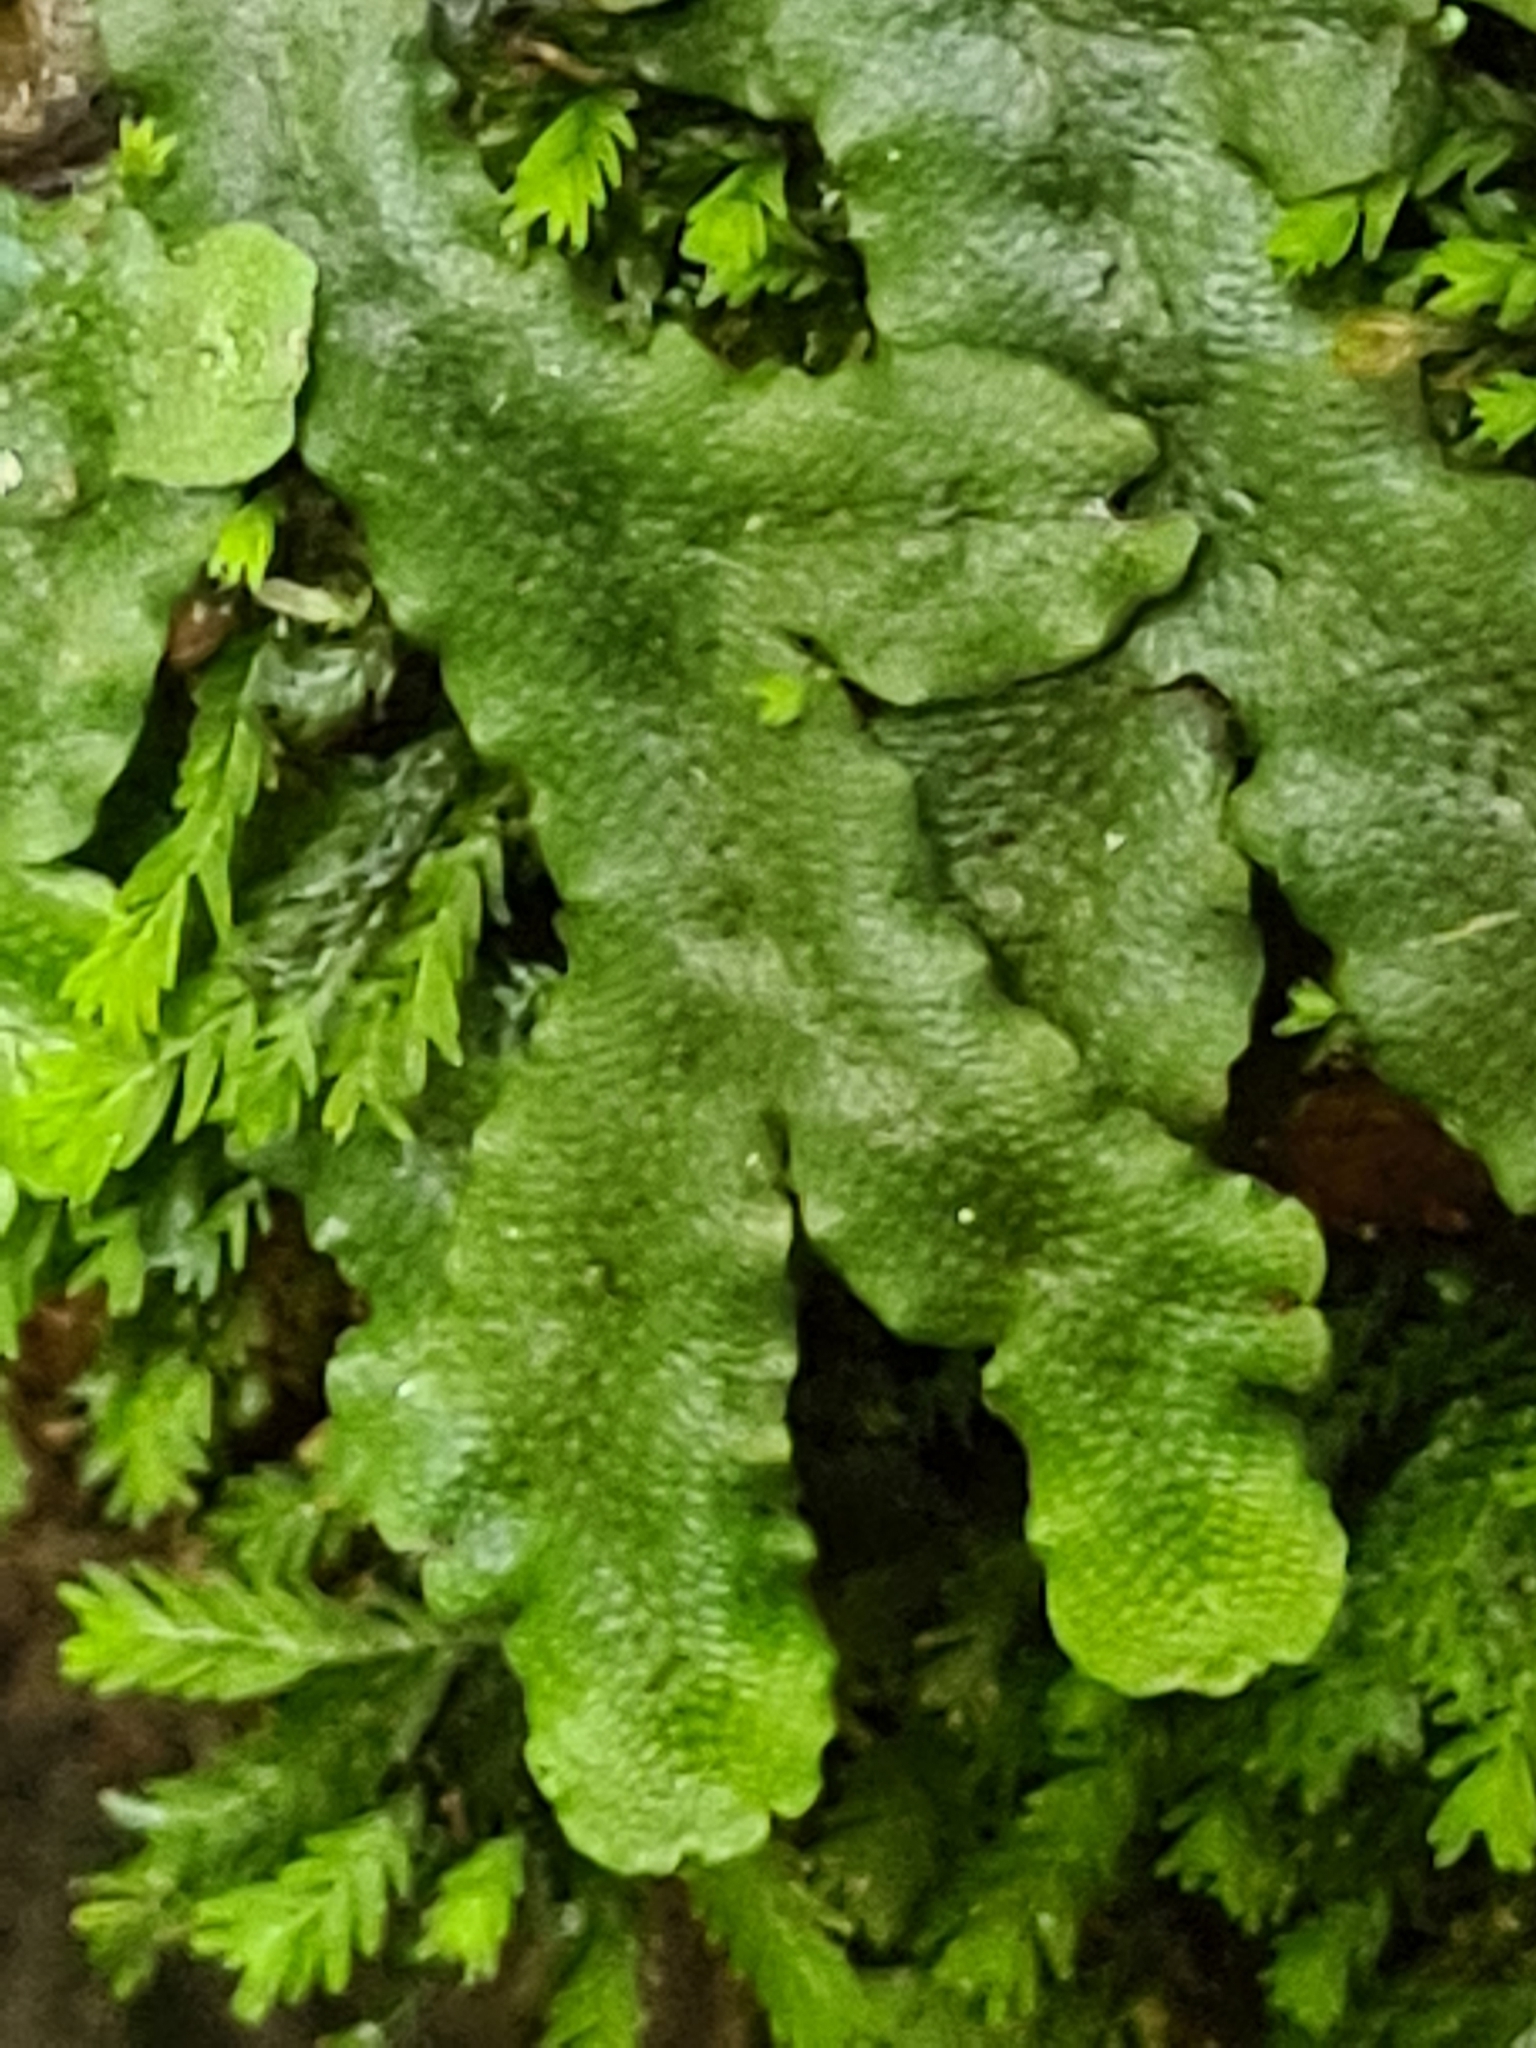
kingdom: Plantae
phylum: Marchantiophyta
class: Marchantiopsida
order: Marchantiales
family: Conocephalaceae
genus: Conocephalum
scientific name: Conocephalum conicum
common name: Great scented liverwort
